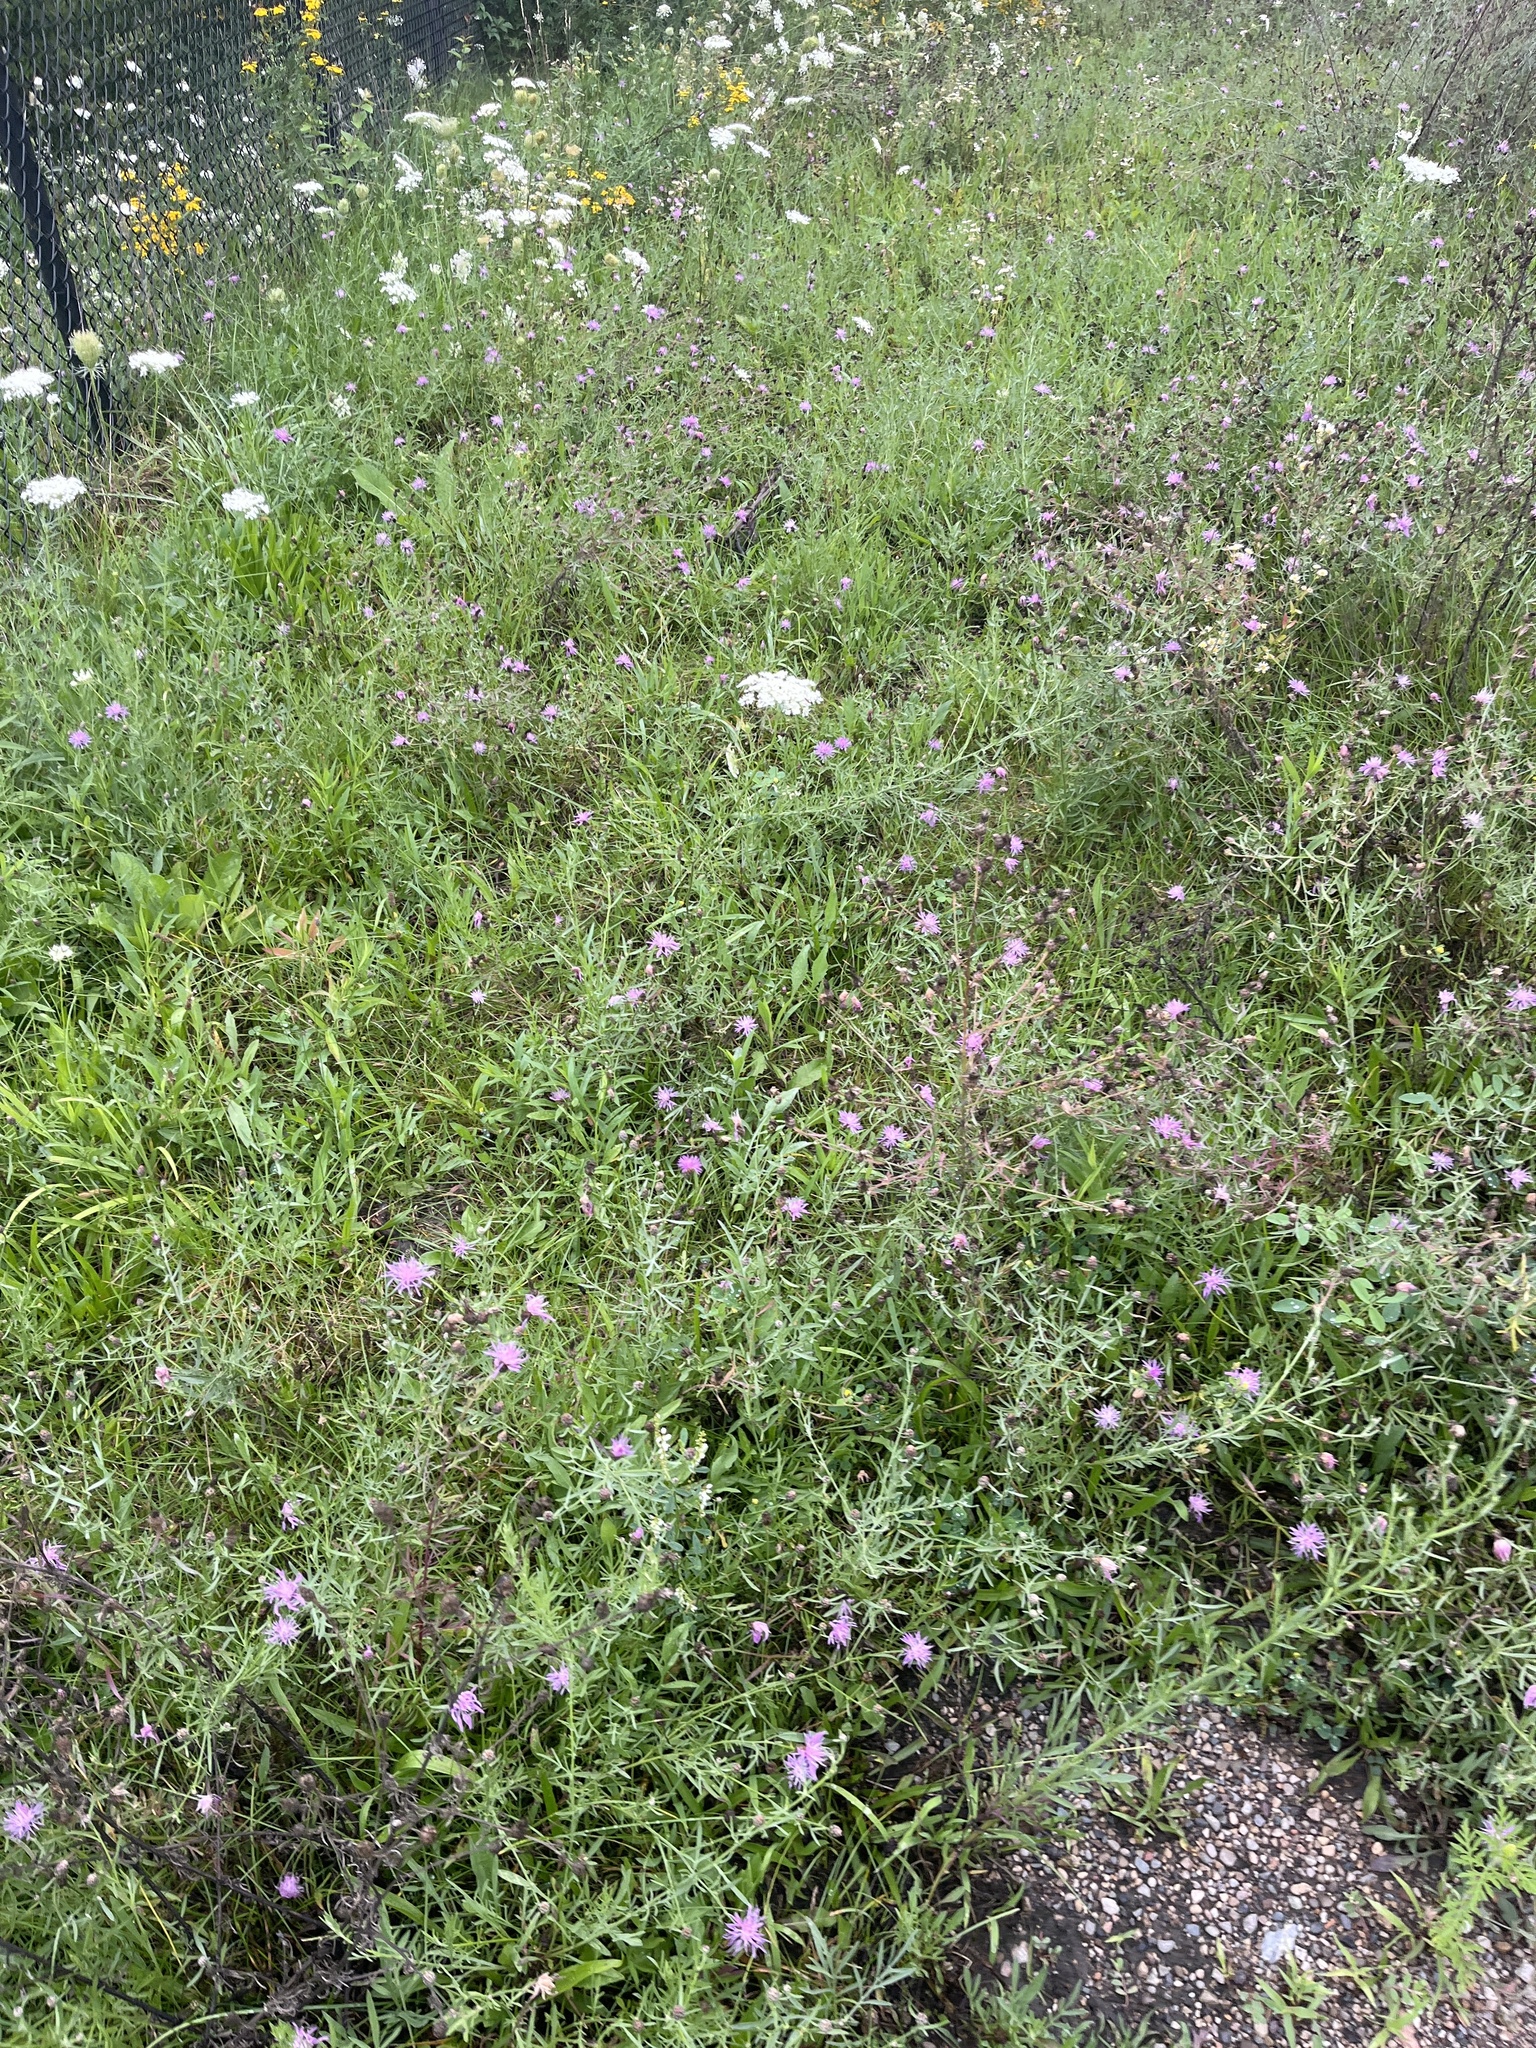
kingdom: Plantae
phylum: Tracheophyta
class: Magnoliopsida
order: Asterales
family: Asteraceae
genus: Centaurea
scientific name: Centaurea stoebe
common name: Spotted knapweed
